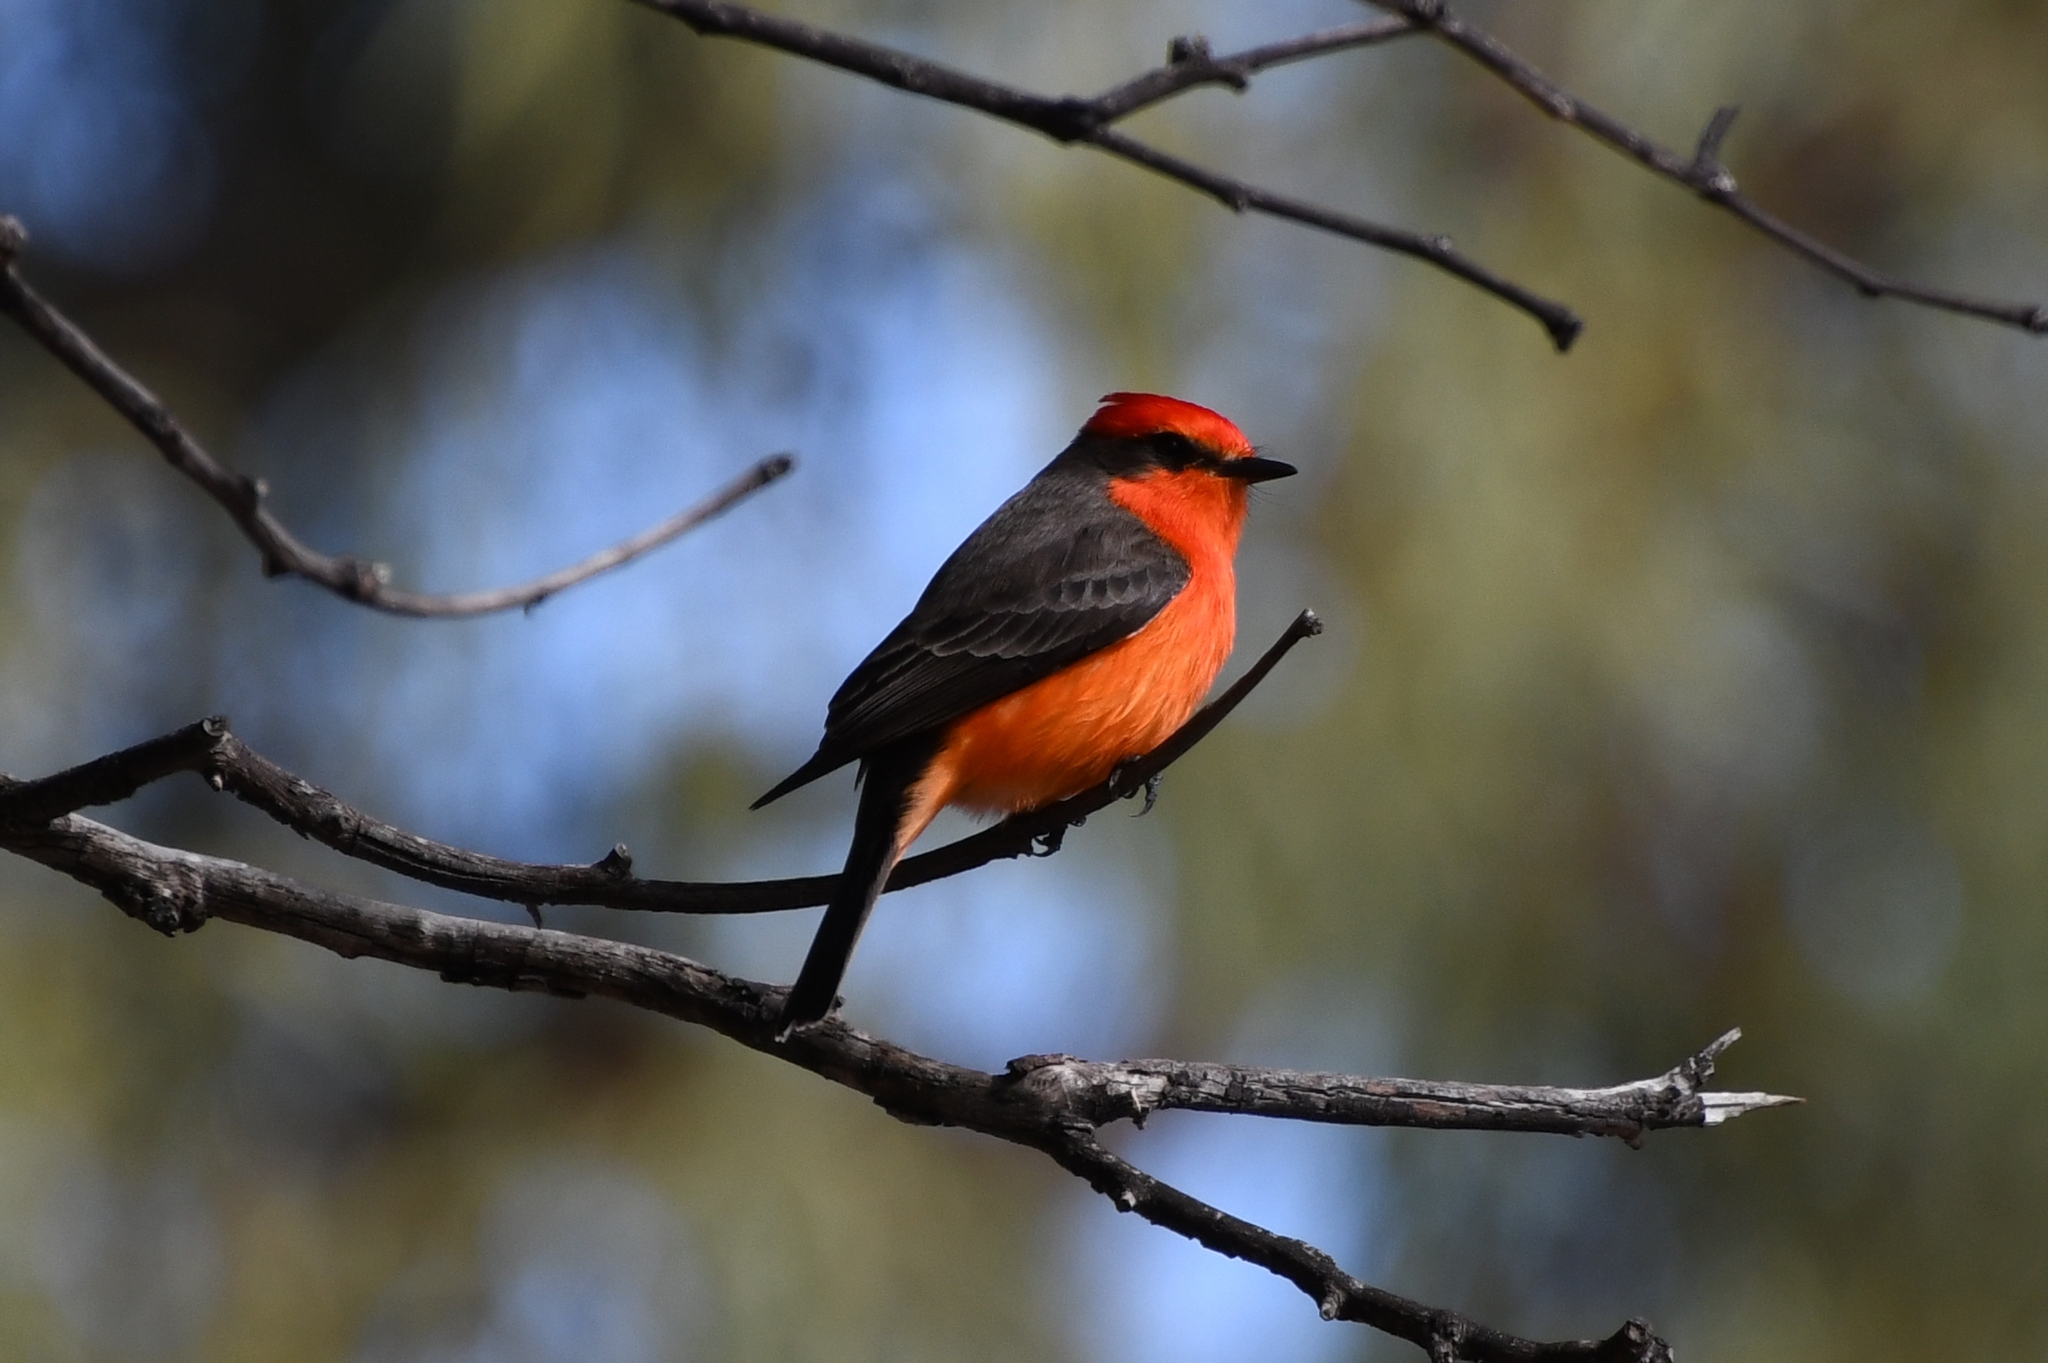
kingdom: Animalia
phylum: Chordata
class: Aves
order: Passeriformes
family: Tyrannidae
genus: Pyrocephalus
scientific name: Pyrocephalus rubinus
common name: Vermilion flycatcher
